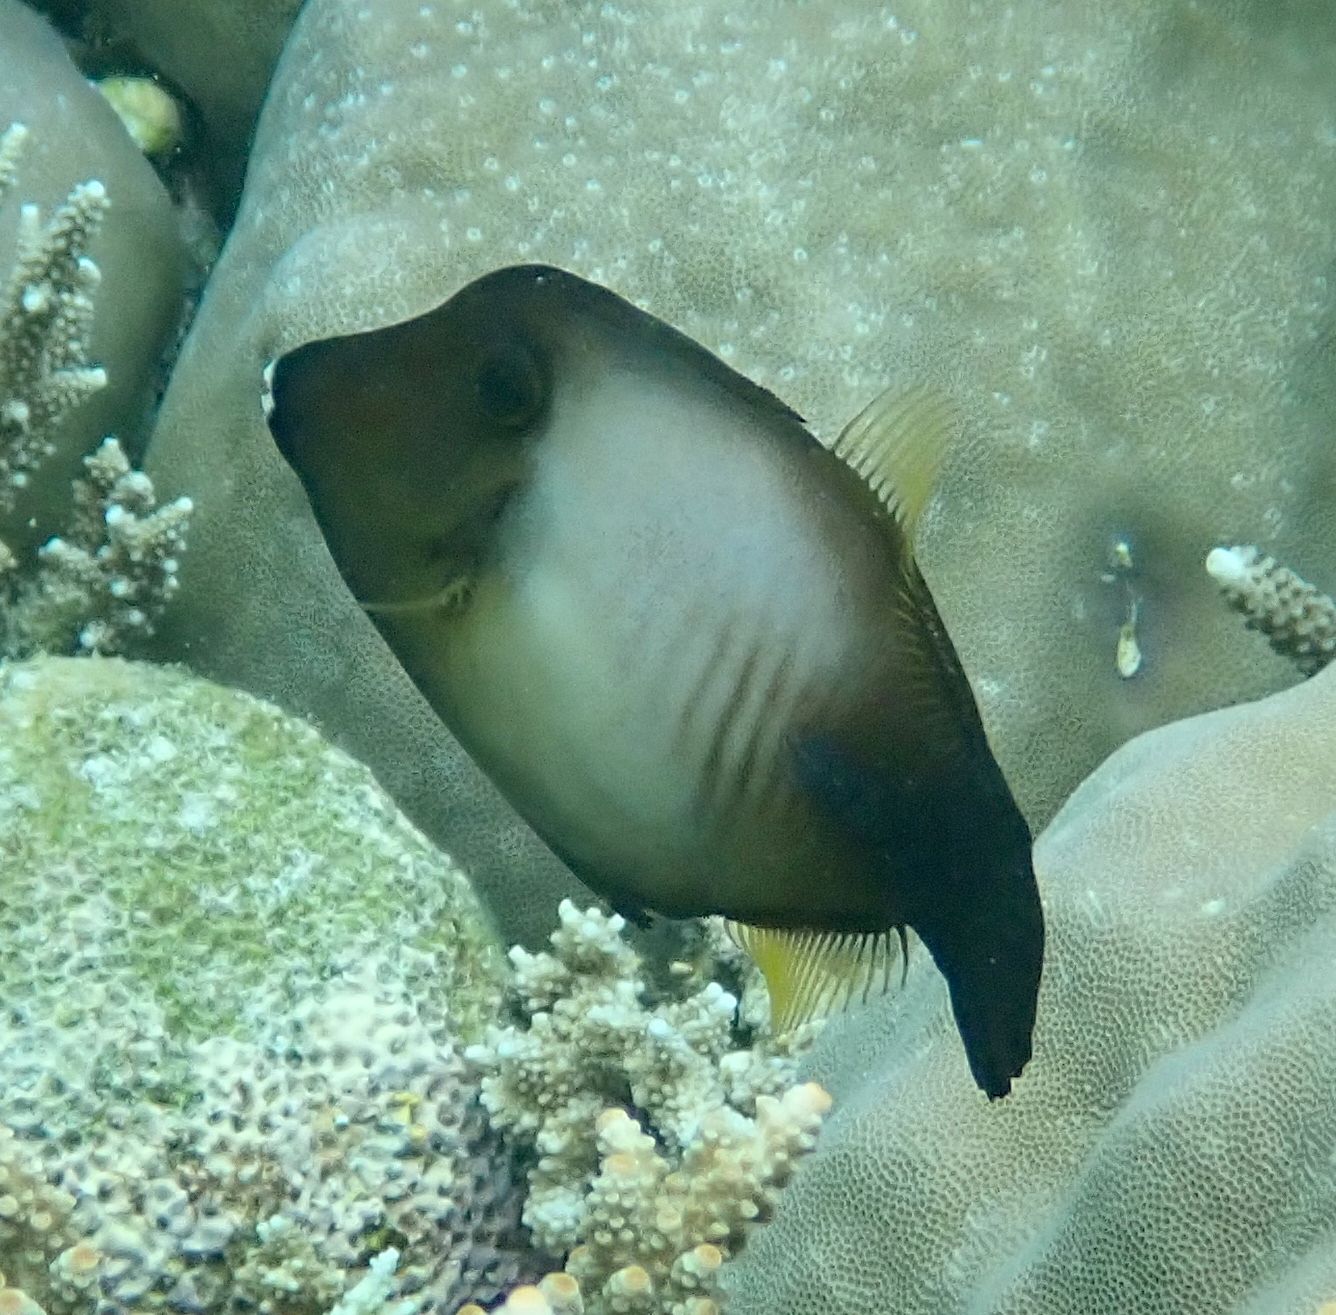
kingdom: Animalia
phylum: Chordata
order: Tetraodontiformes
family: Monacanthidae
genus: Amanses
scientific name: Amanses scopas
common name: Broom filefish
